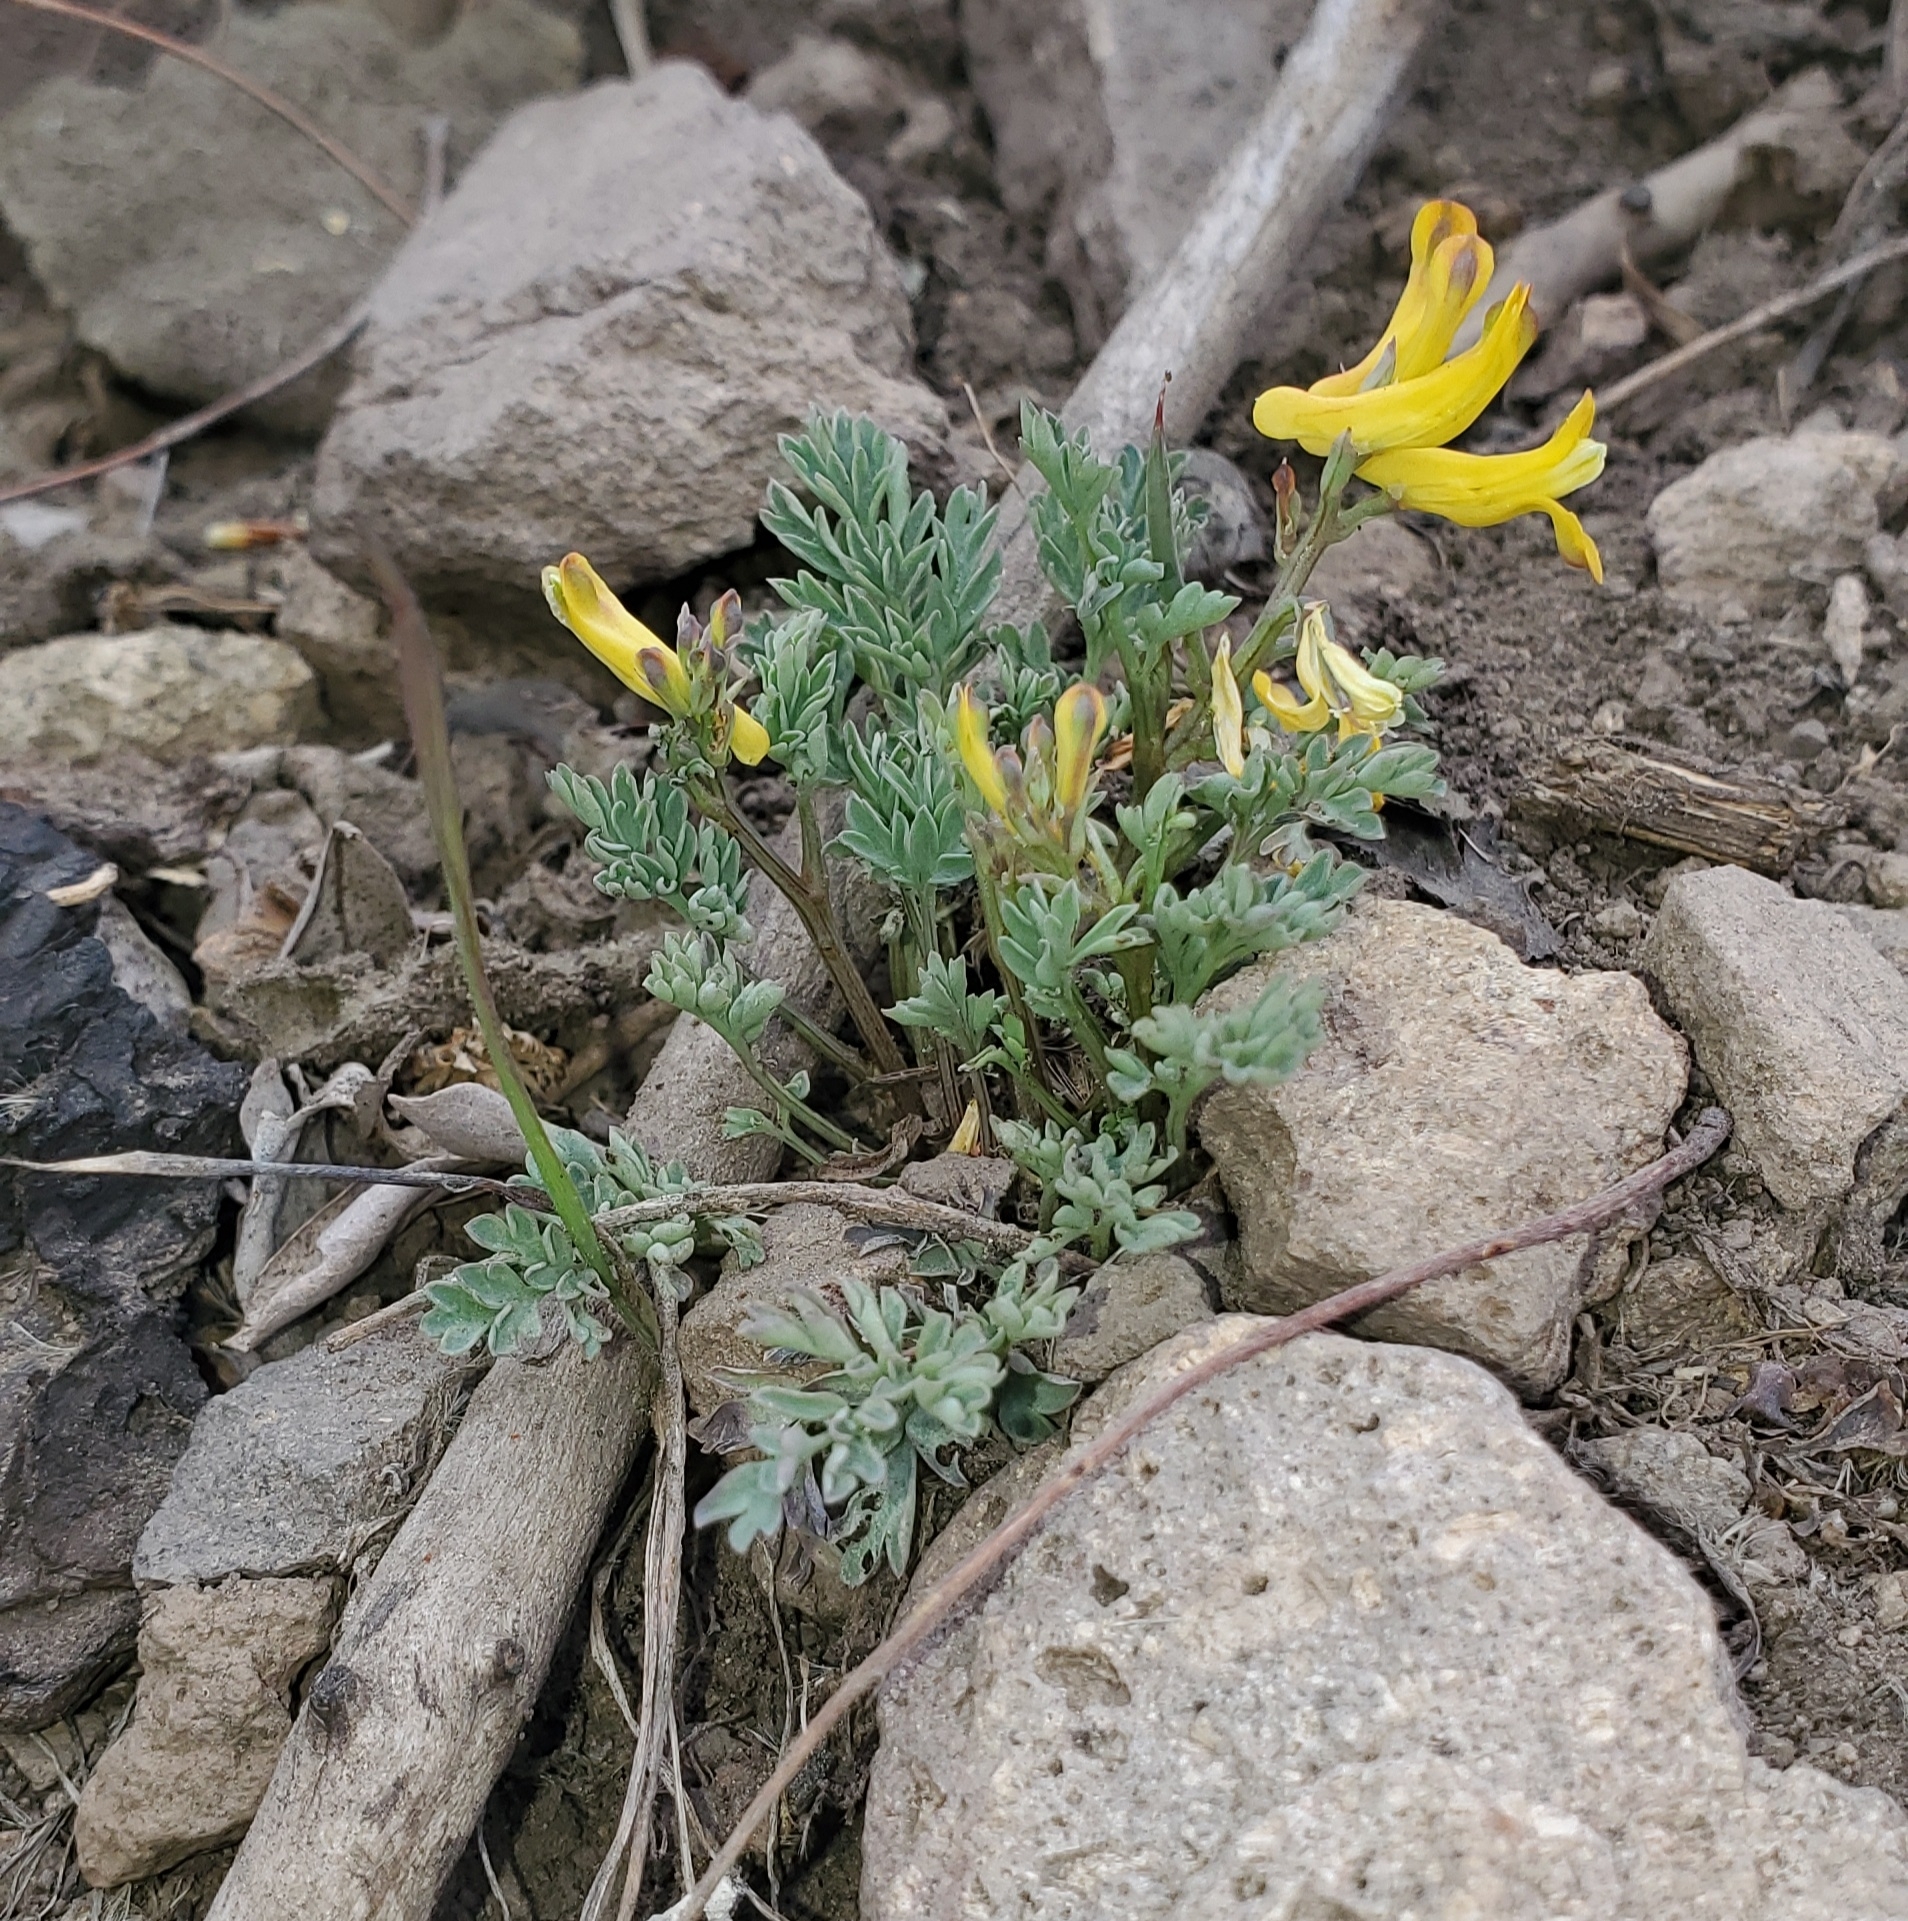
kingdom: Plantae
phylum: Tracheophyta
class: Magnoliopsida
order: Ranunculales
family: Papaveraceae
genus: Corydalis
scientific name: Corydalis aurea
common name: Golden corydalis
